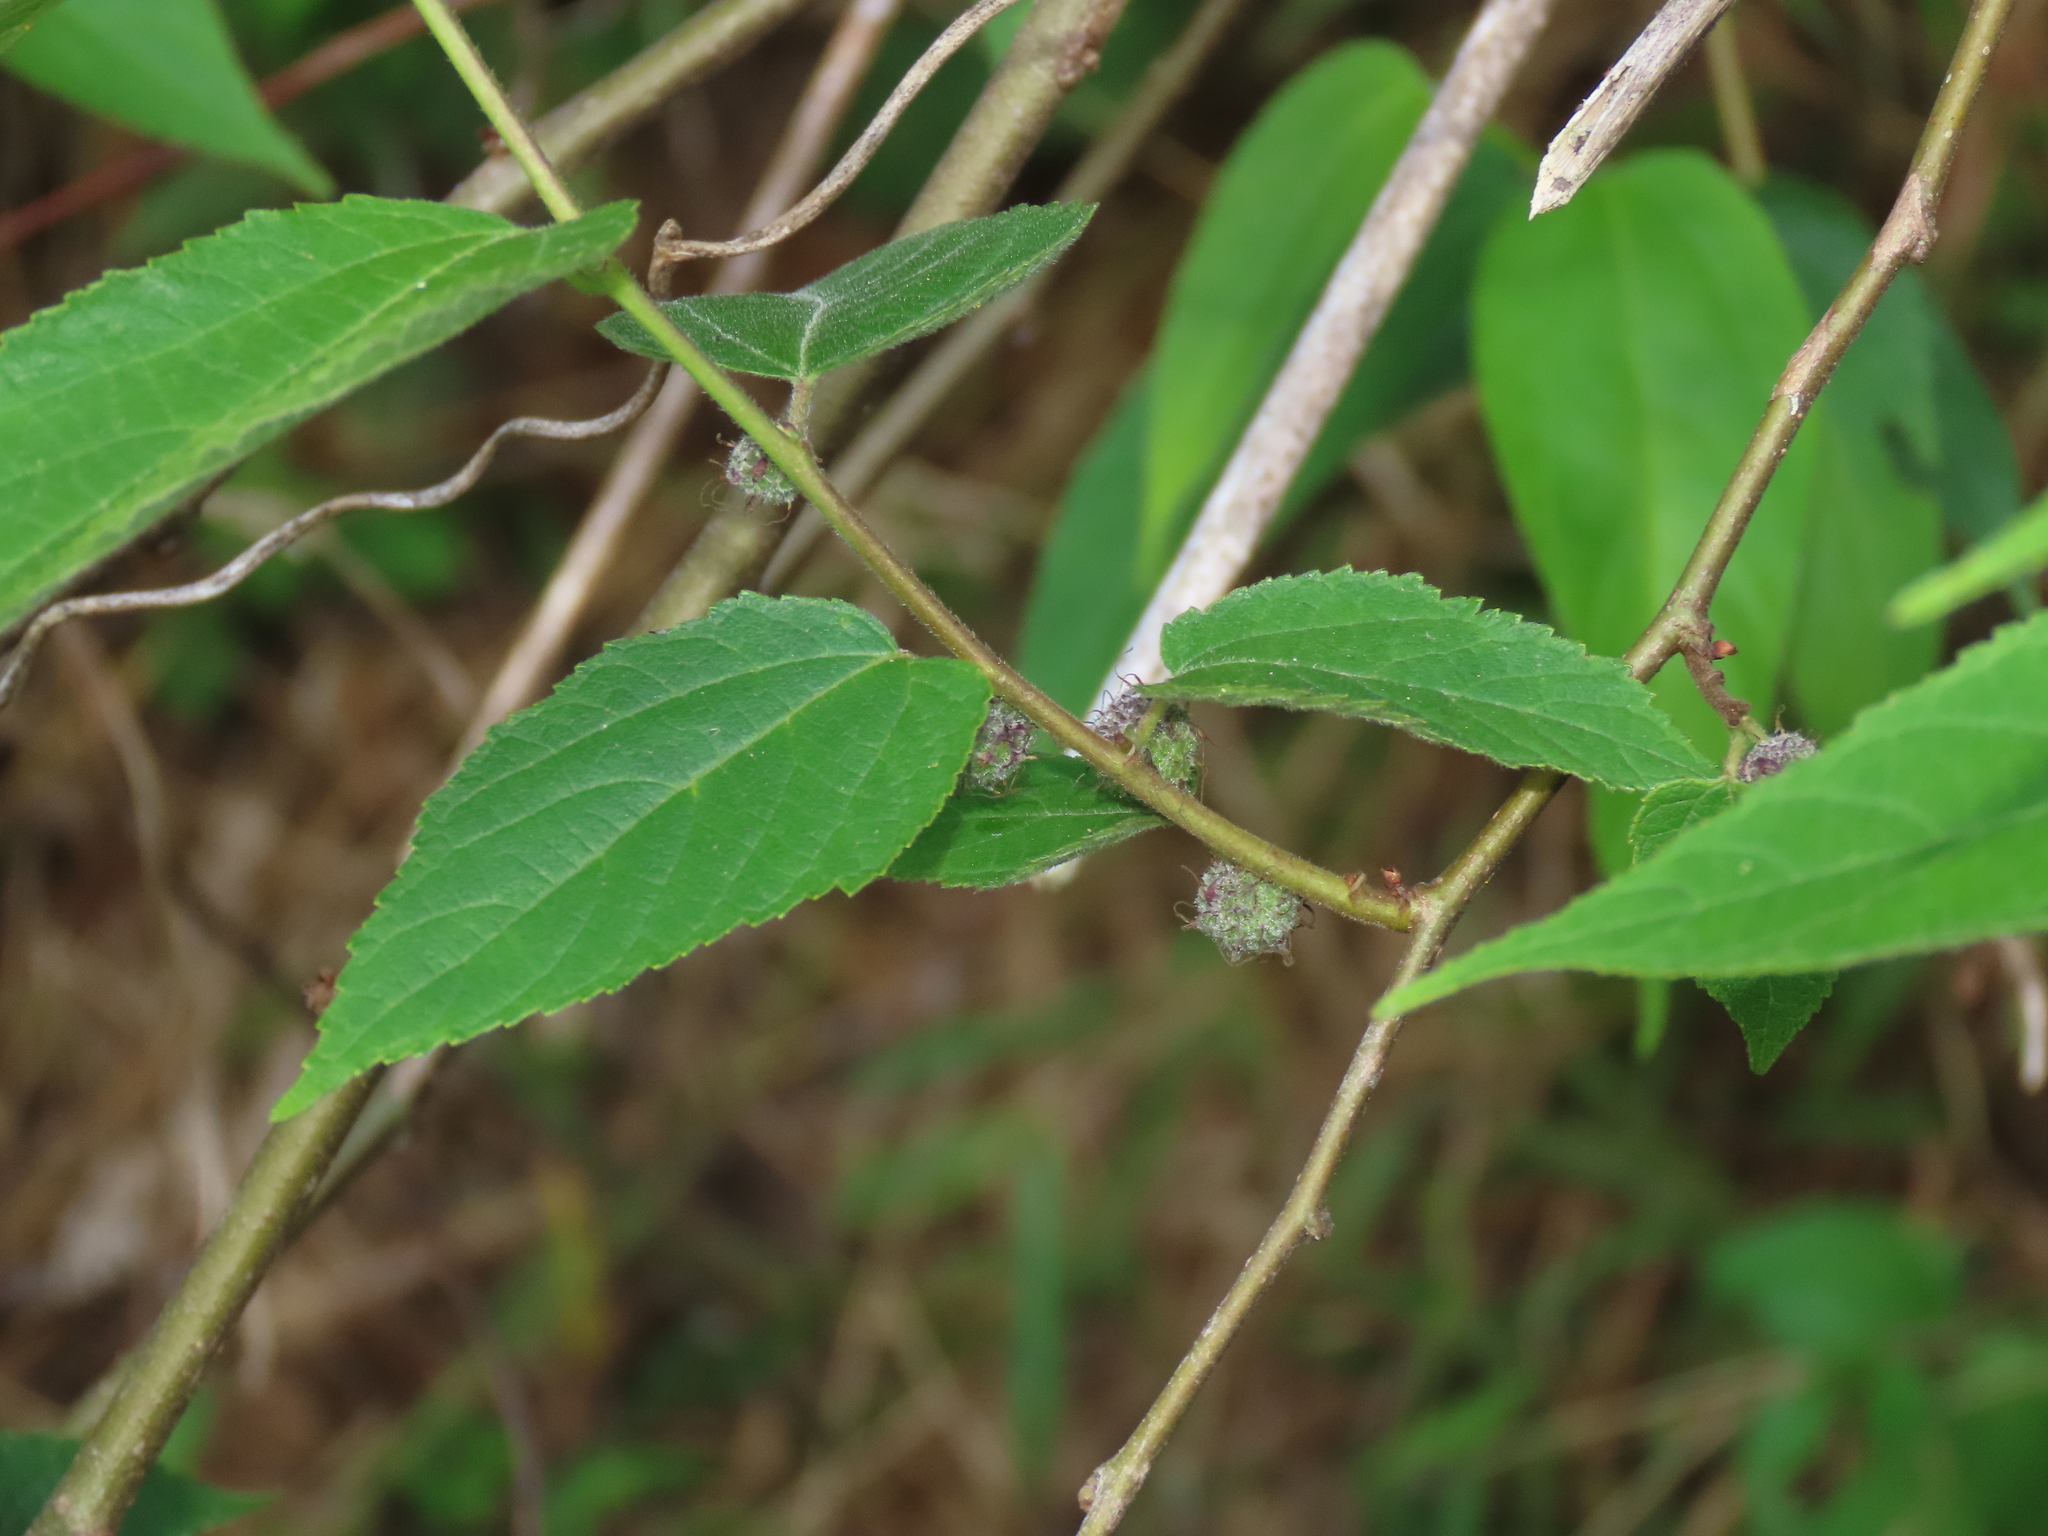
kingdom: Plantae
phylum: Tracheophyta
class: Magnoliopsida
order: Rosales
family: Moraceae
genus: Broussonetia
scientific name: Broussonetia monoica
